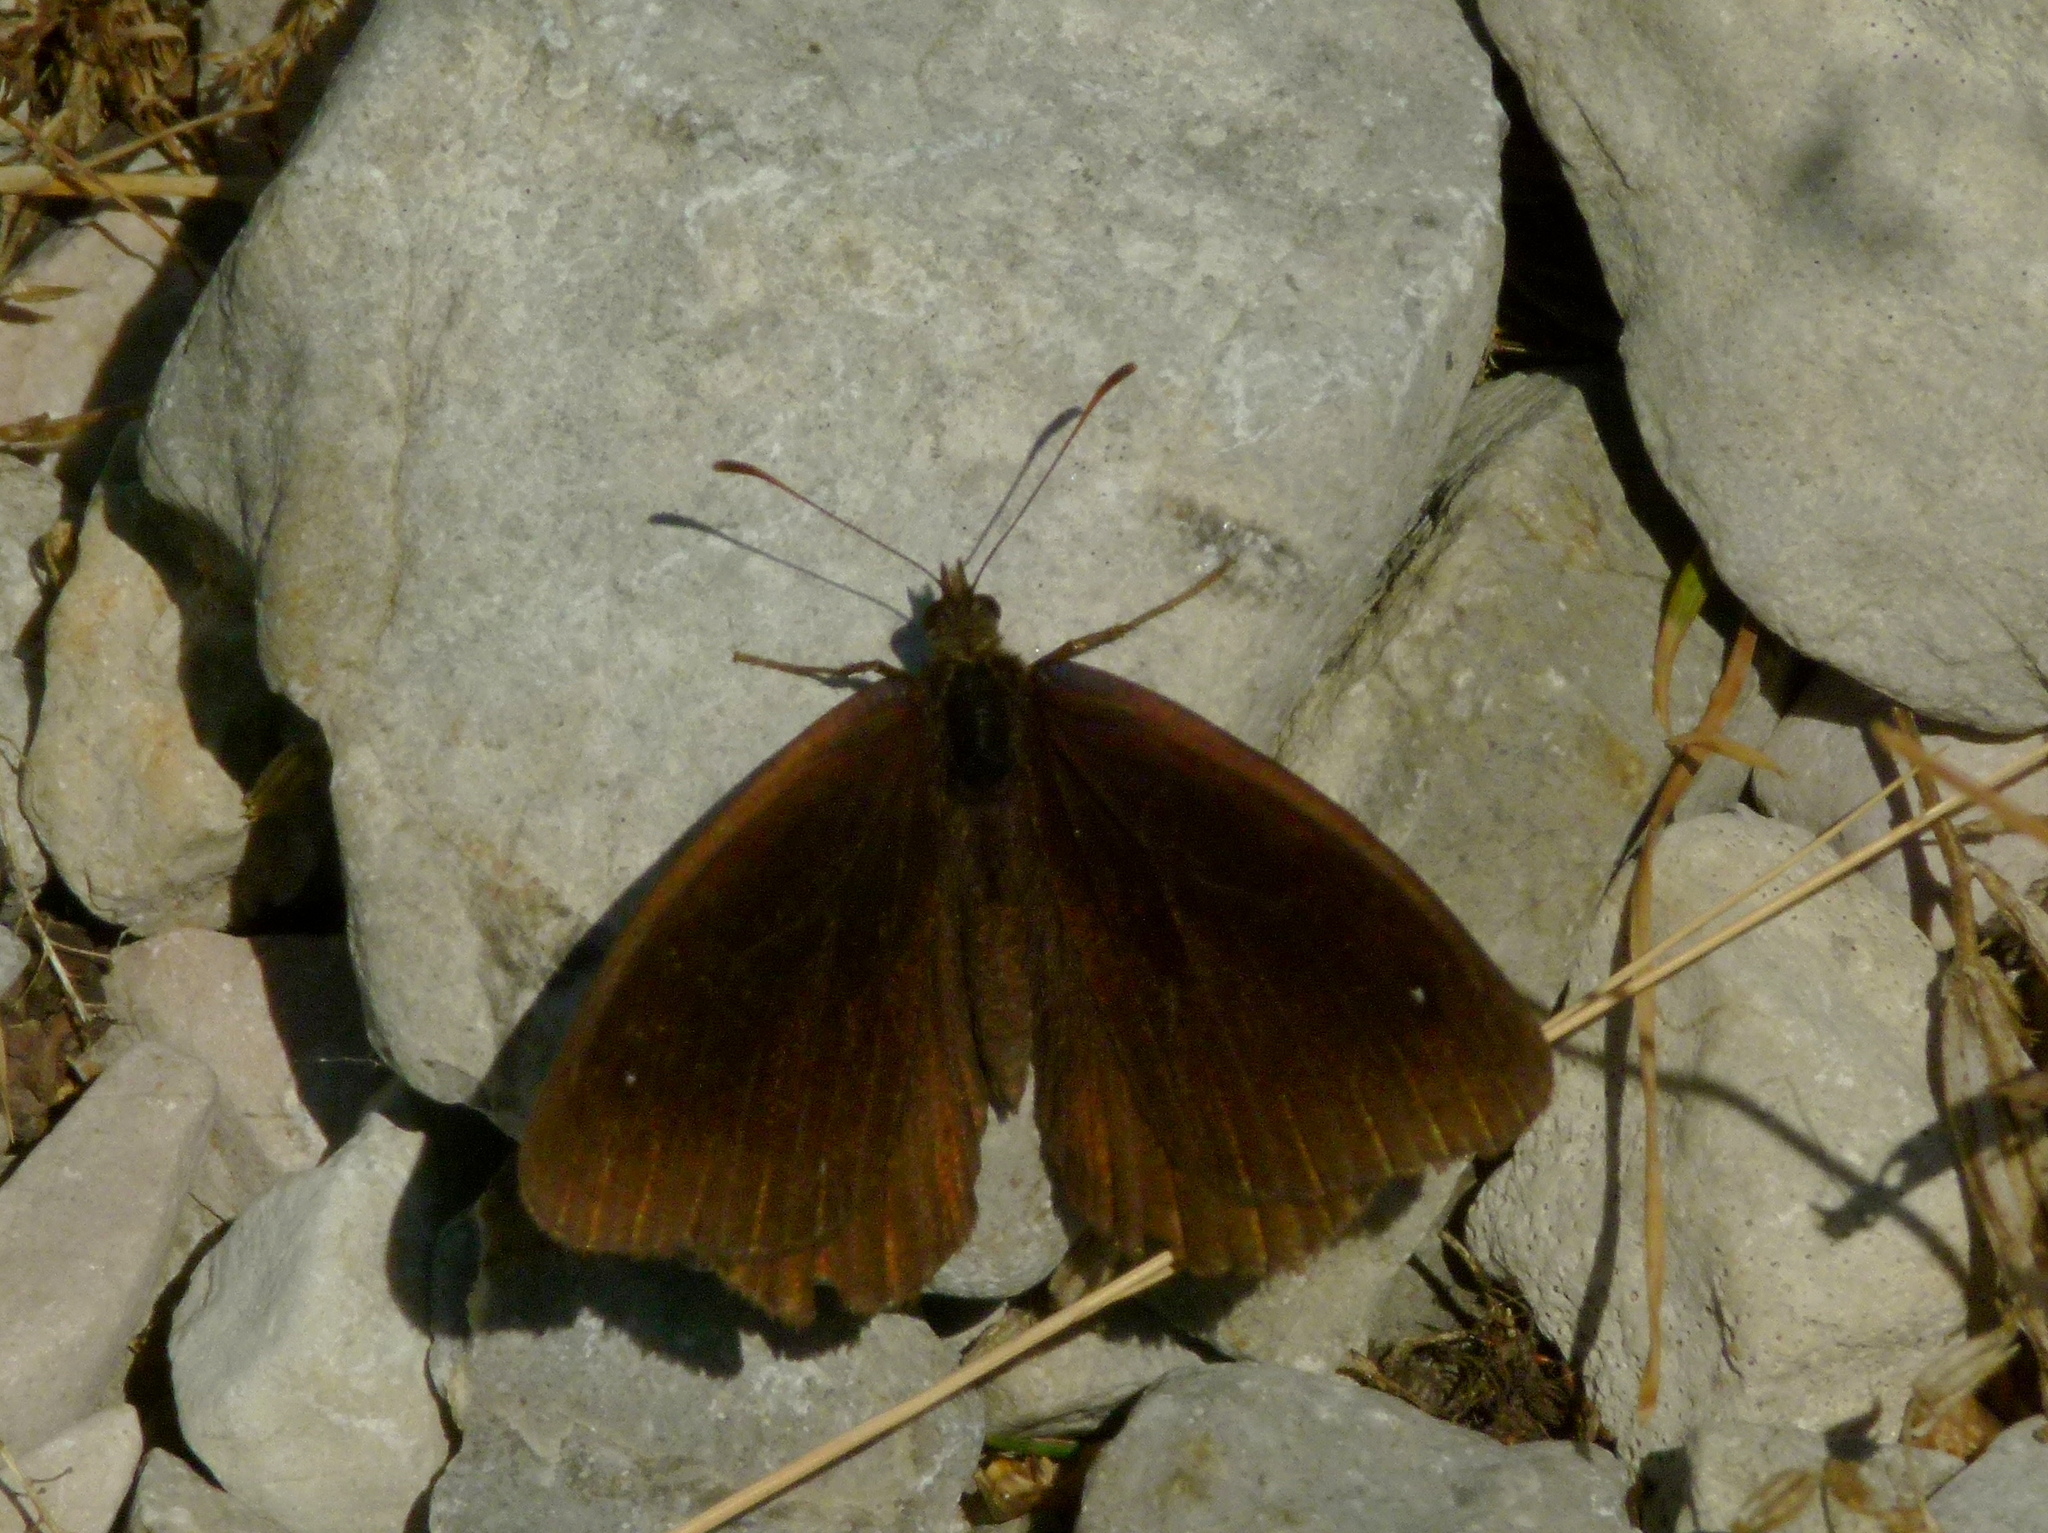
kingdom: Animalia
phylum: Arthropoda
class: Insecta
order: Lepidoptera
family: Nymphalidae
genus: Satyrus
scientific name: Satyrus actaea
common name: Black satyr
